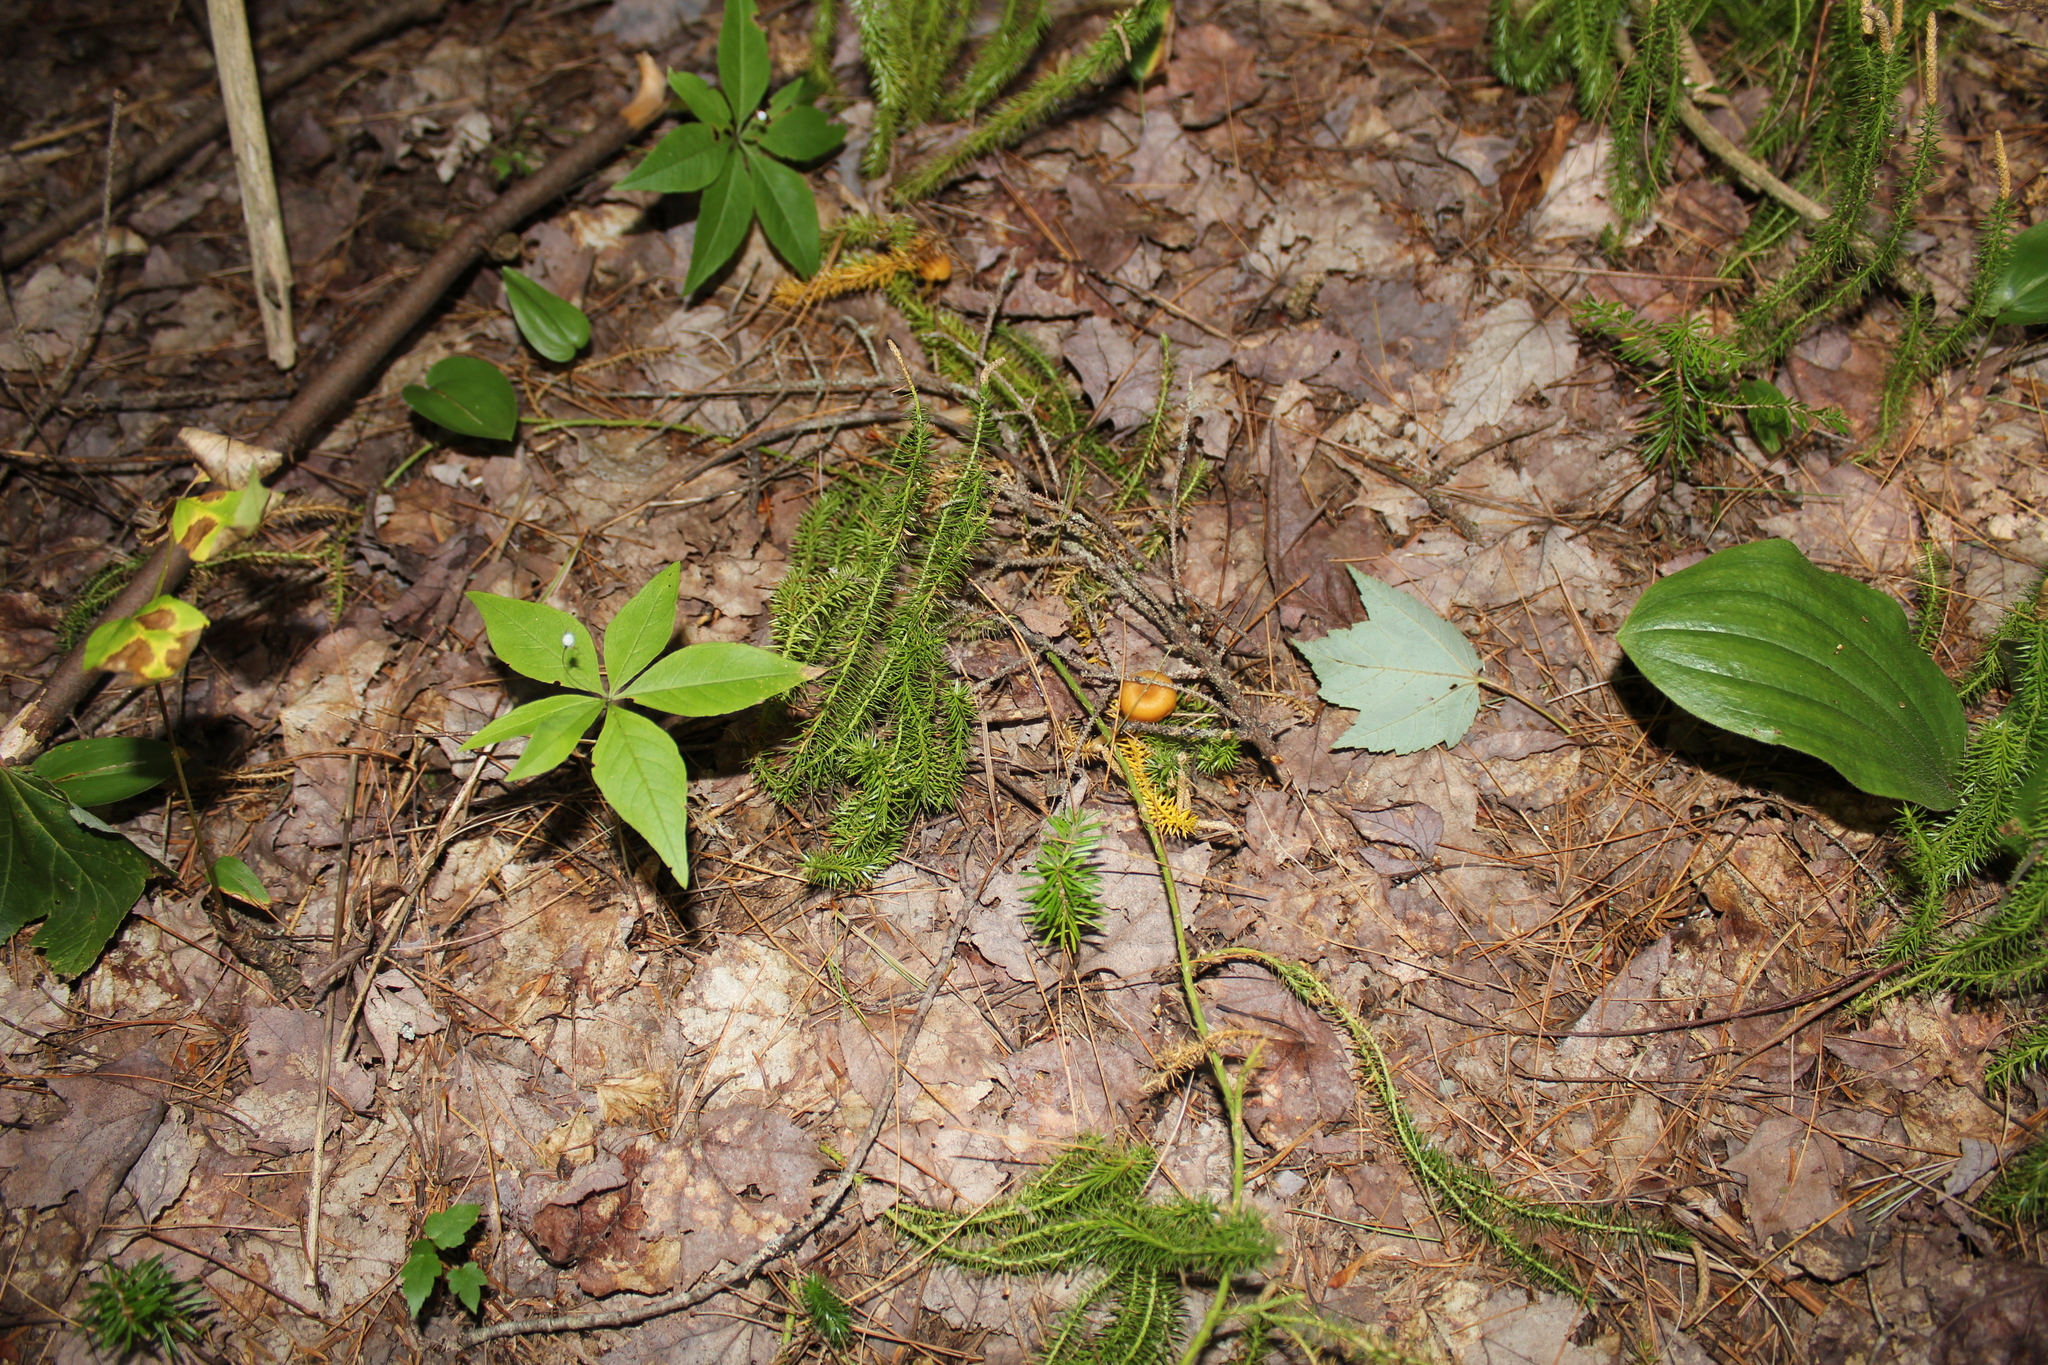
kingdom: Plantae
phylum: Tracheophyta
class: Magnoliopsida
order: Ericales
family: Primulaceae
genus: Lysimachia
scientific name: Lysimachia borealis
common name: American starflower
